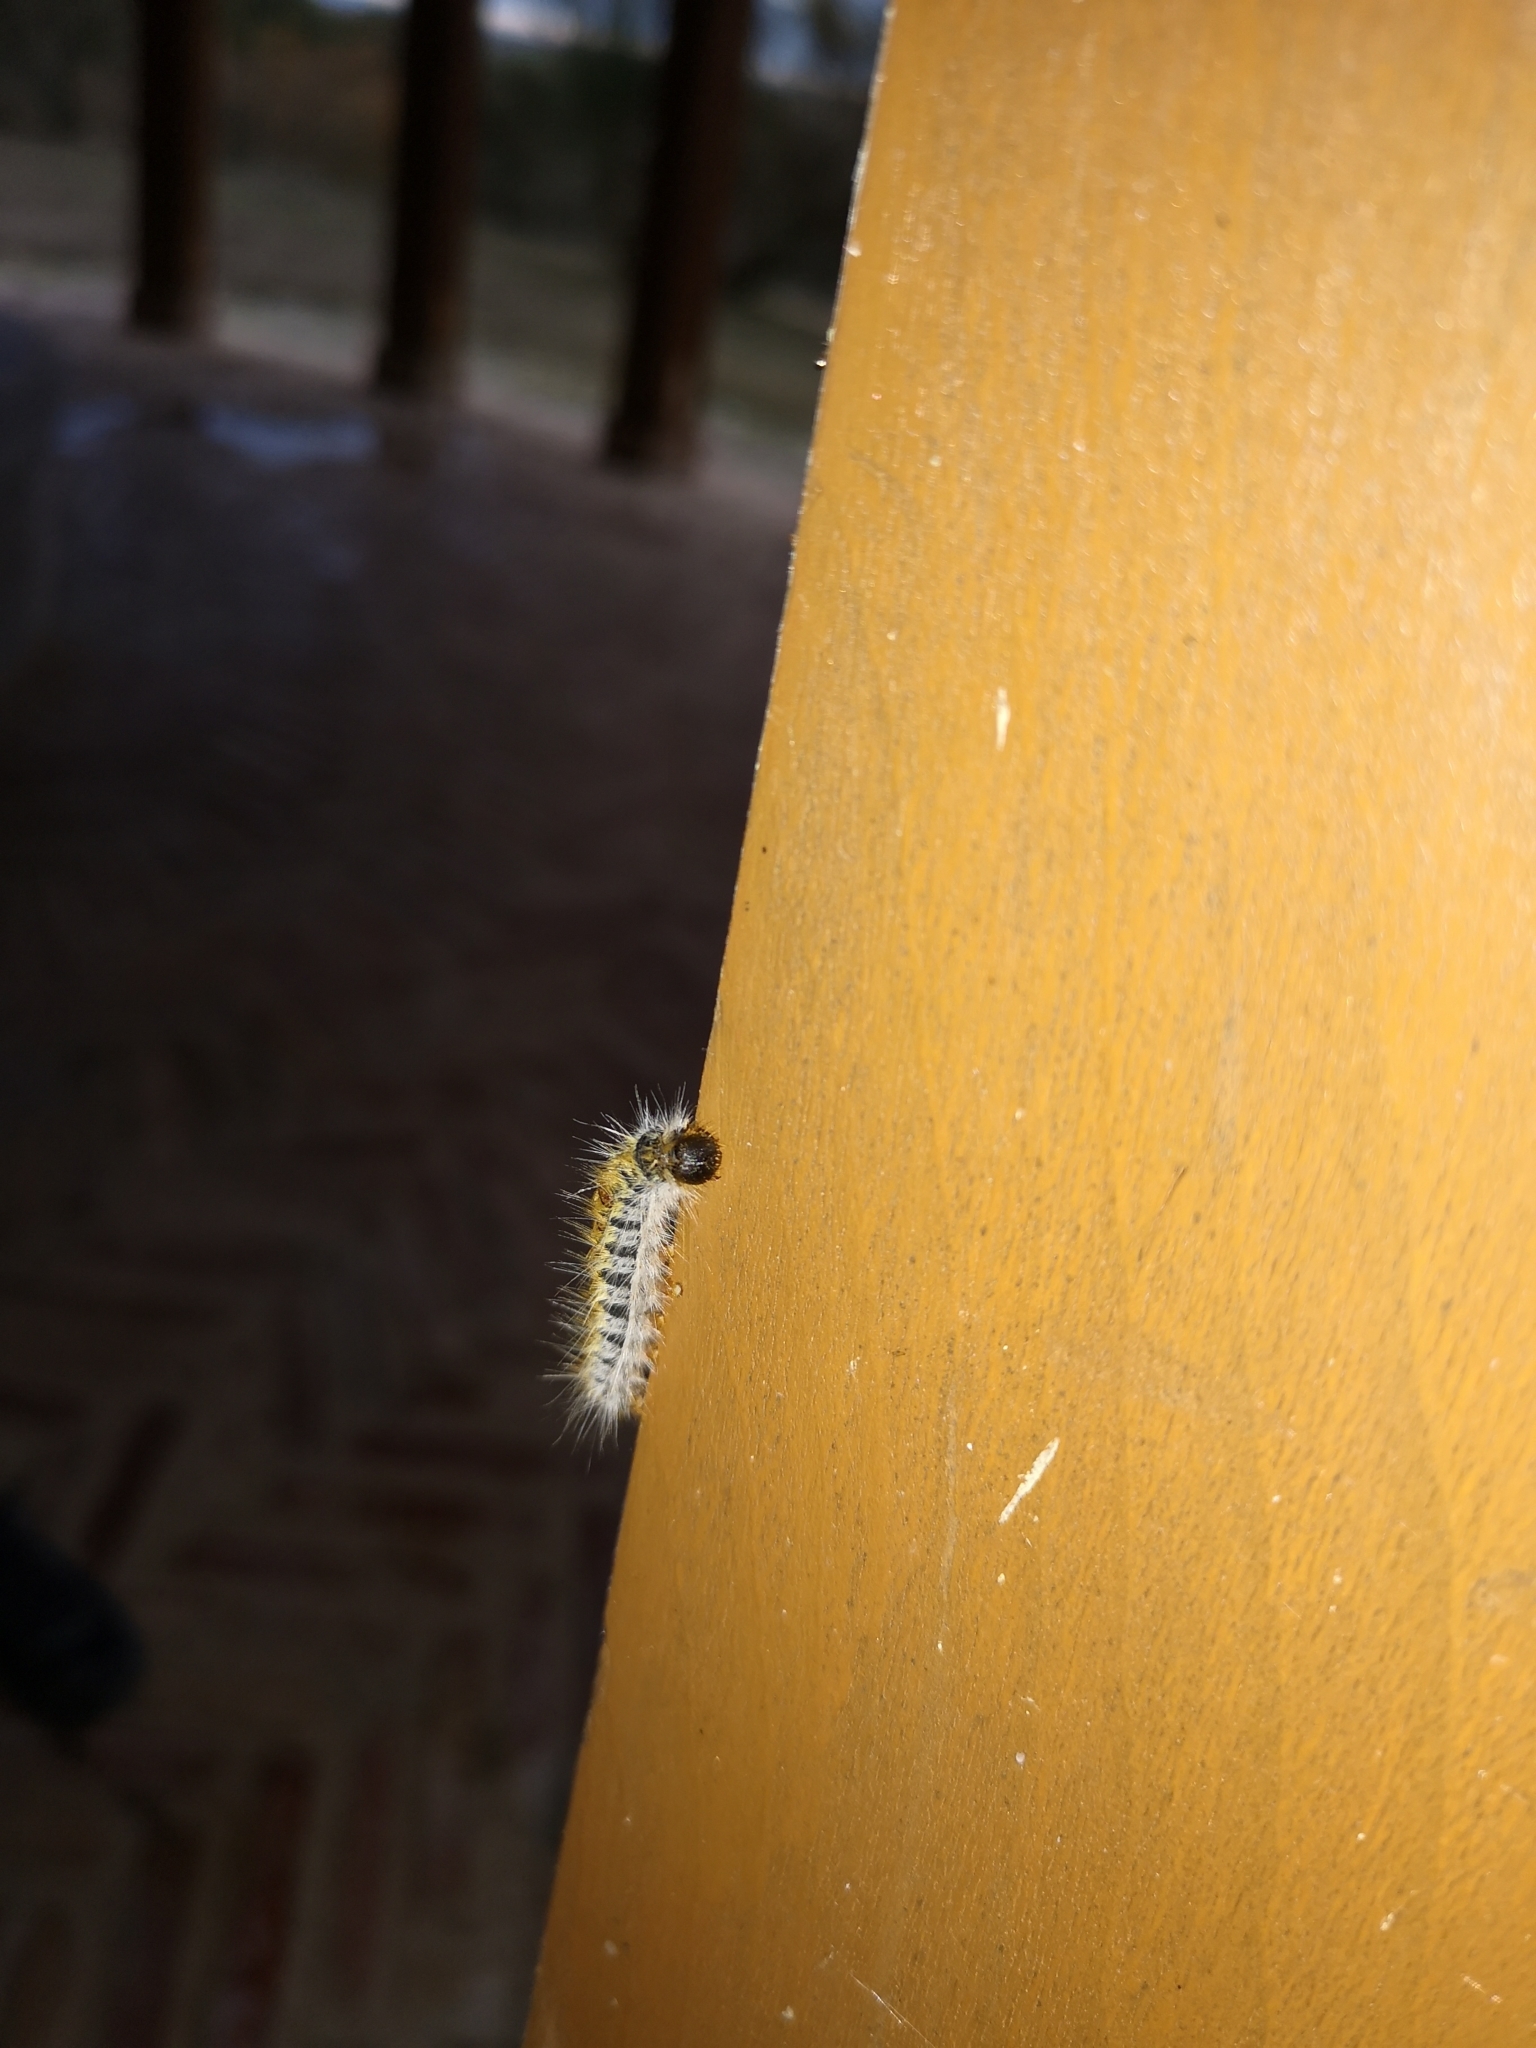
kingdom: Animalia
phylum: Arthropoda
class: Insecta
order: Lepidoptera
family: Notodontidae
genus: Thaumetopoea
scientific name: Thaumetopoea pityocampa
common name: Pine processionary
